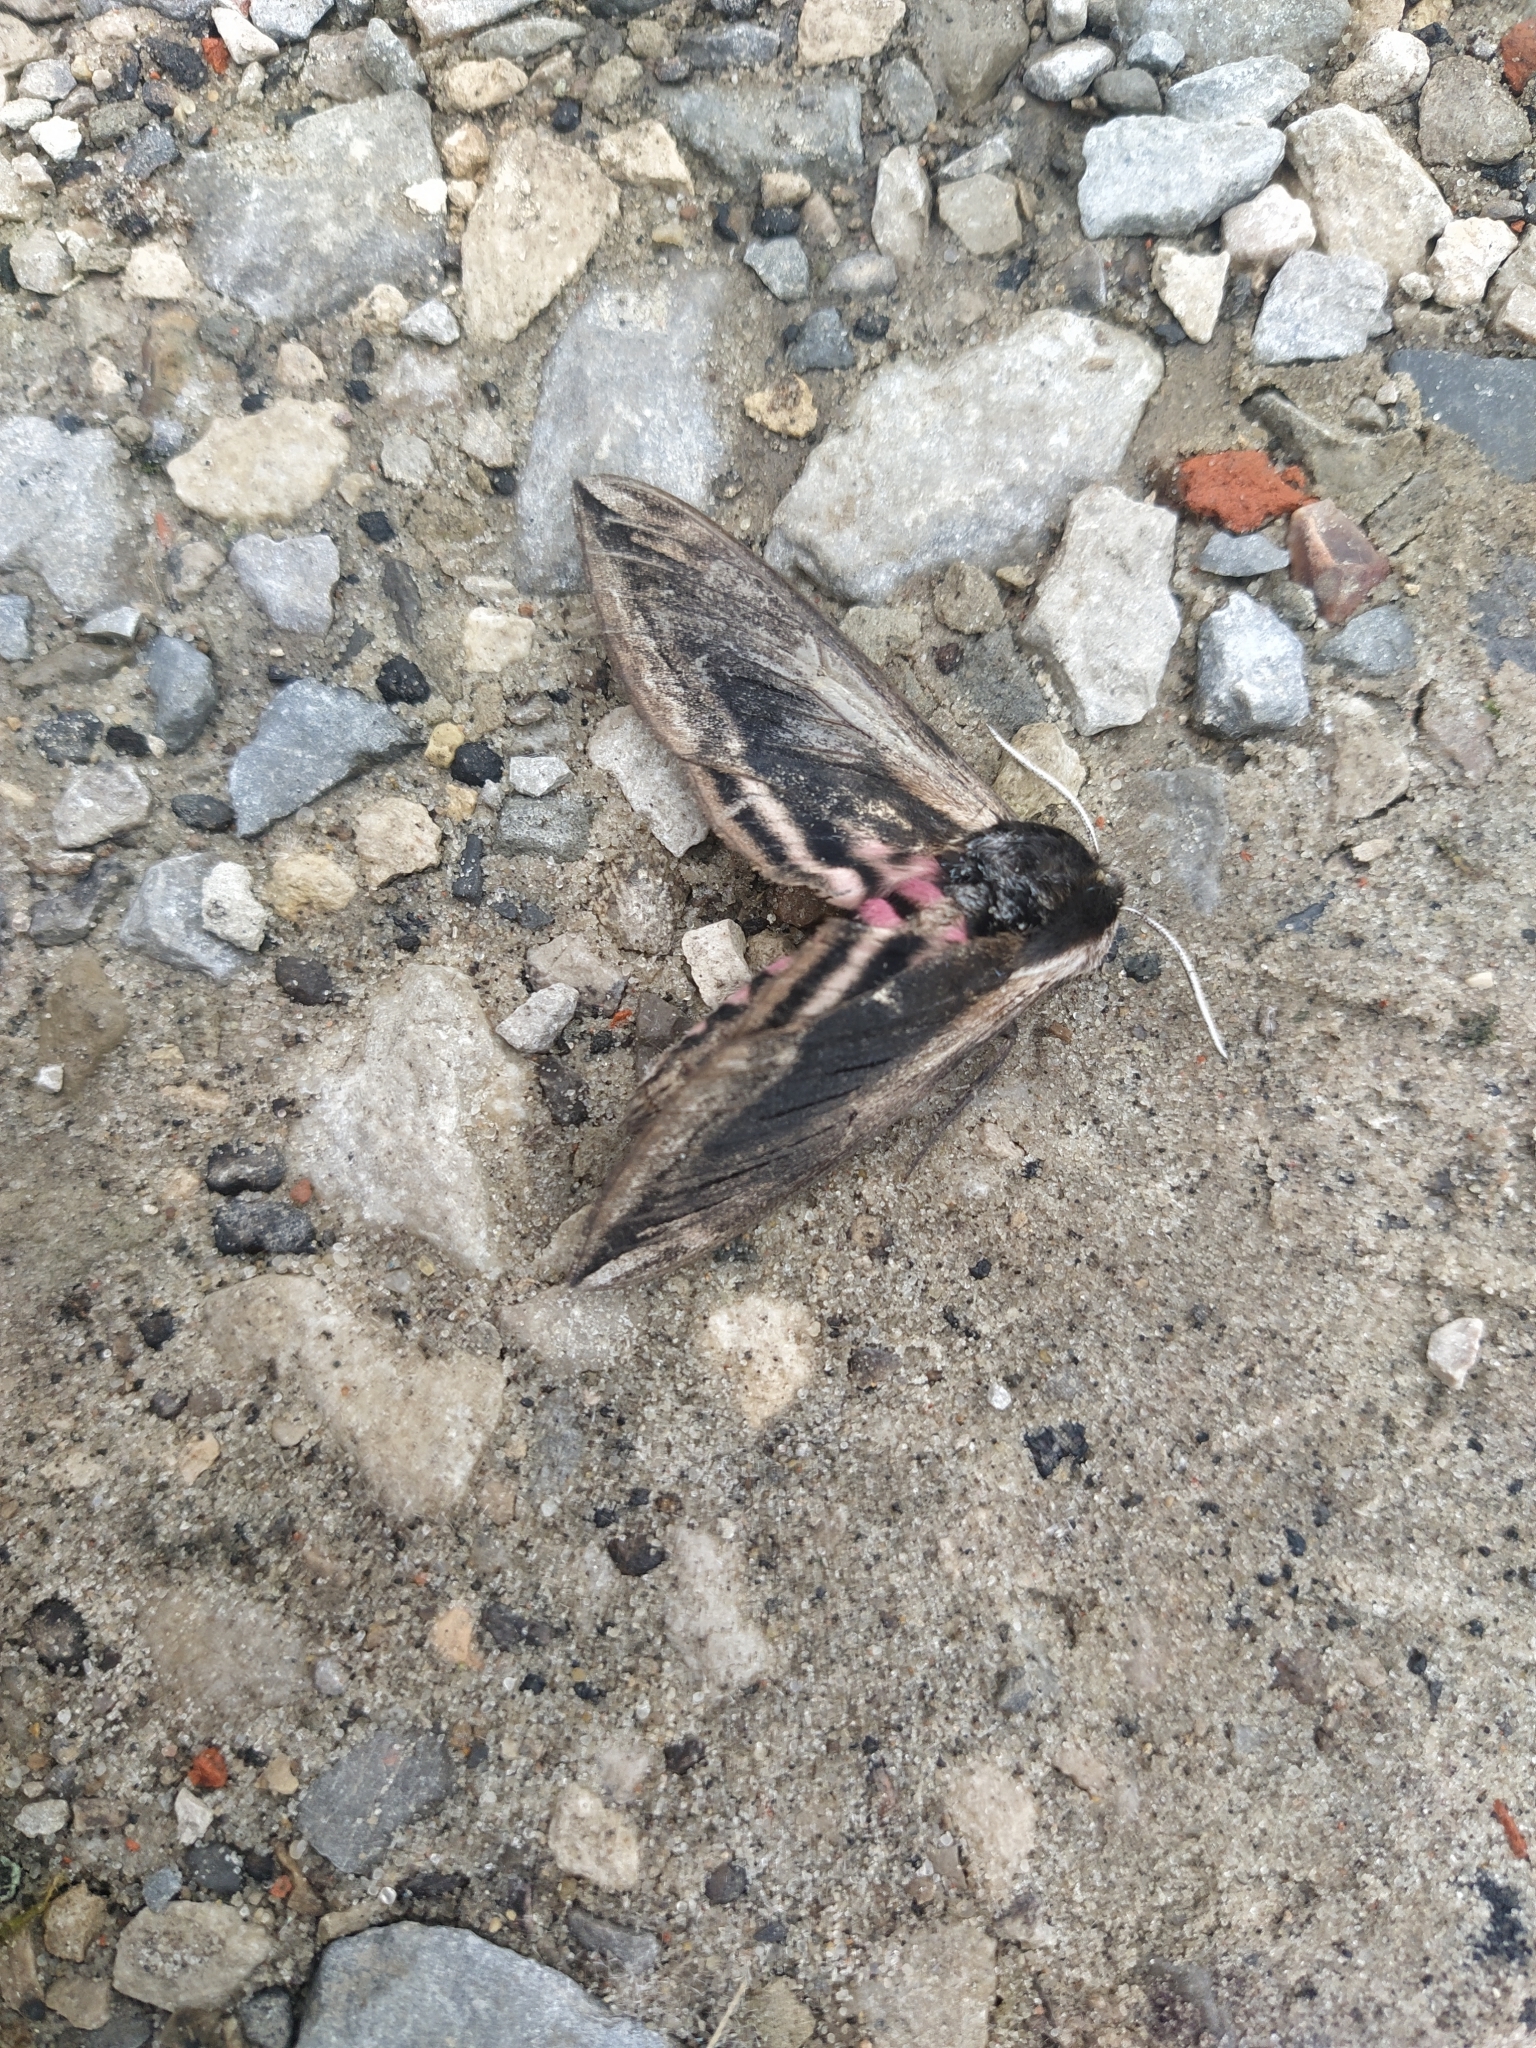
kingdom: Animalia
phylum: Arthropoda
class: Insecta
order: Lepidoptera
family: Sphingidae
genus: Sphinx
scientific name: Sphinx ligustri
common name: Privet hawk-moth
